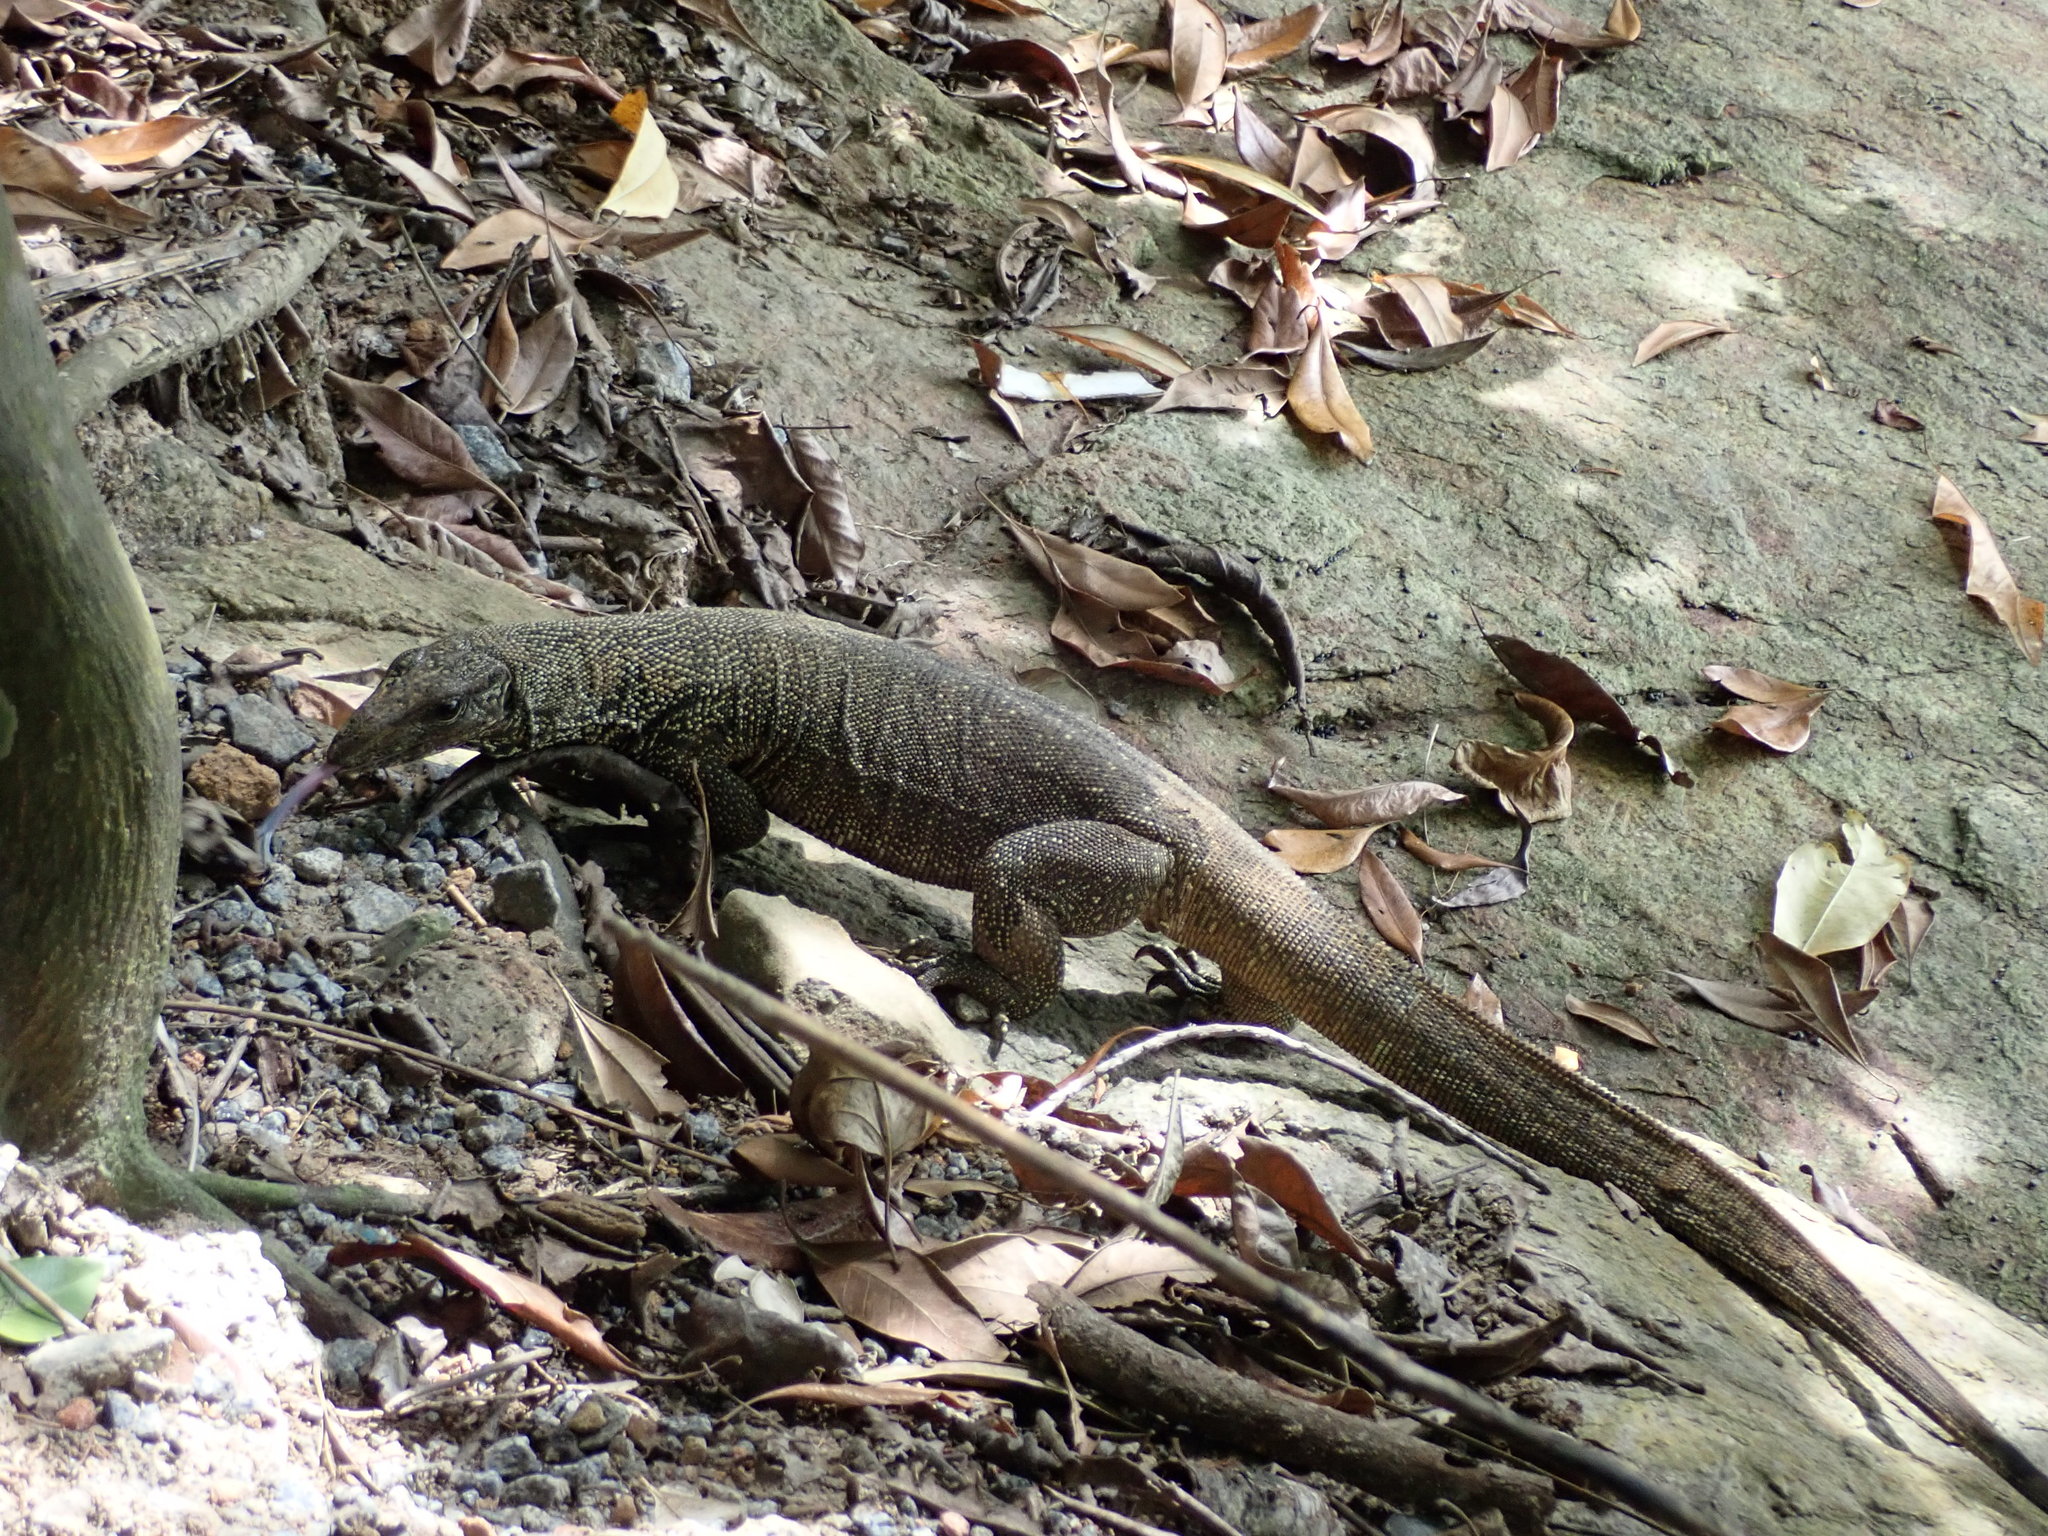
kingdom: Animalia
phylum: Chordata
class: Squamata
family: Varanidae
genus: Varanus
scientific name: Varanus nebulosus
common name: Clouded monitor
